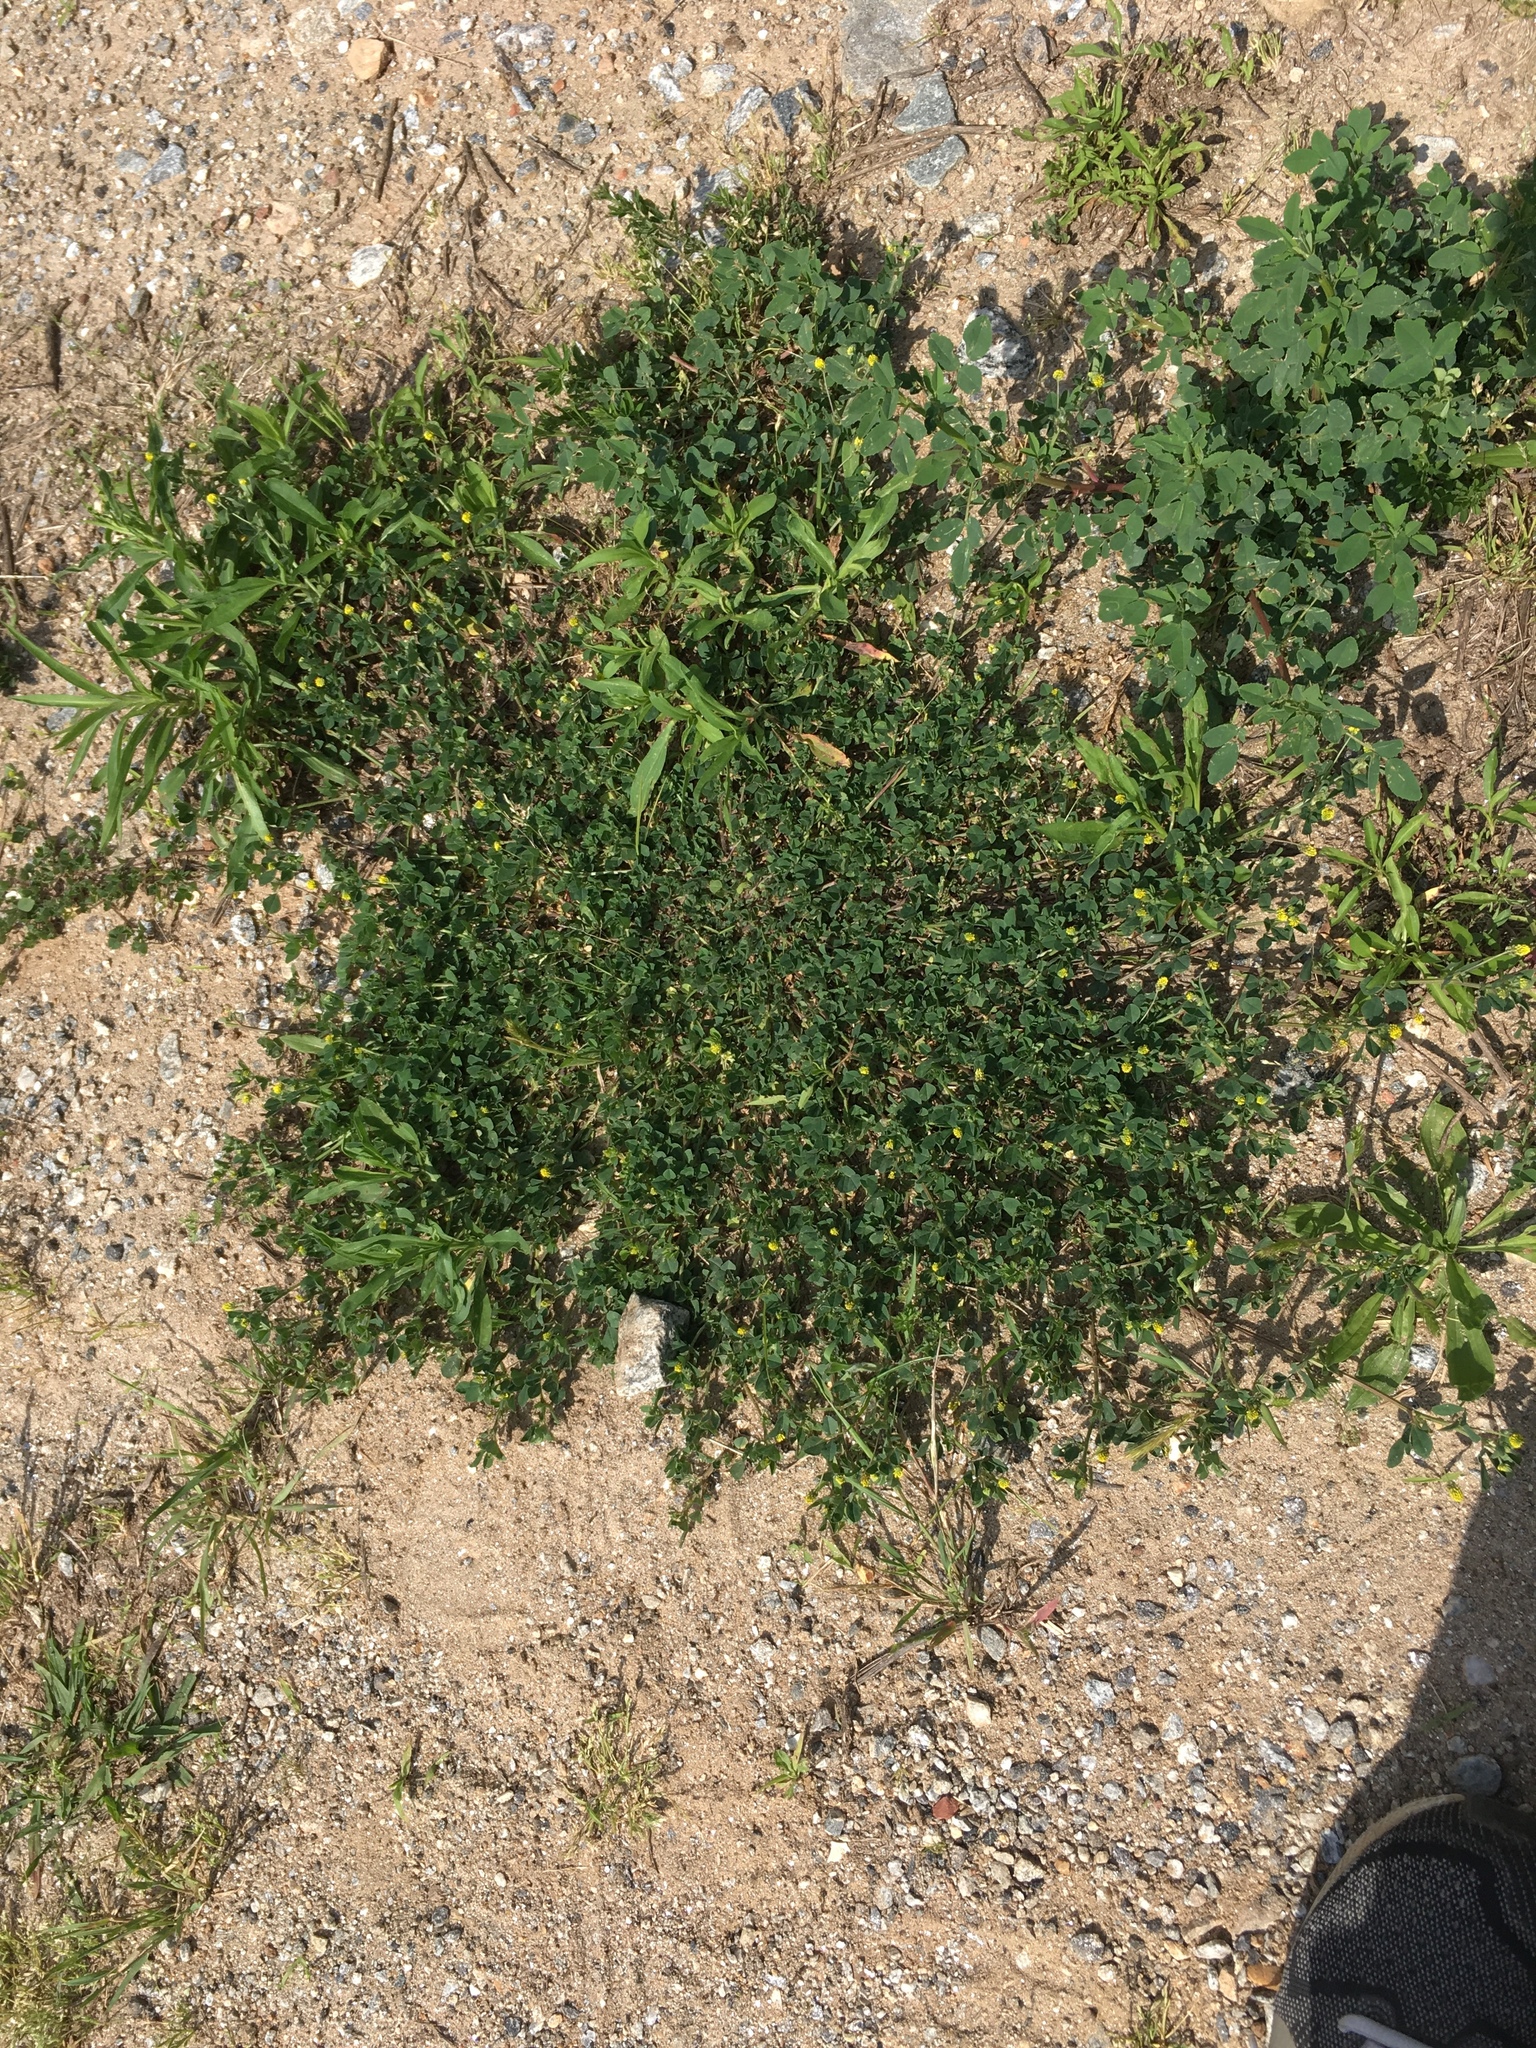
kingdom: Plantae
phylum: Tracheophyta
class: Magnoliopsida
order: Fabales
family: Fabaceae
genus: Medicago
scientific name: Medicago lupulina
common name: Black medick
